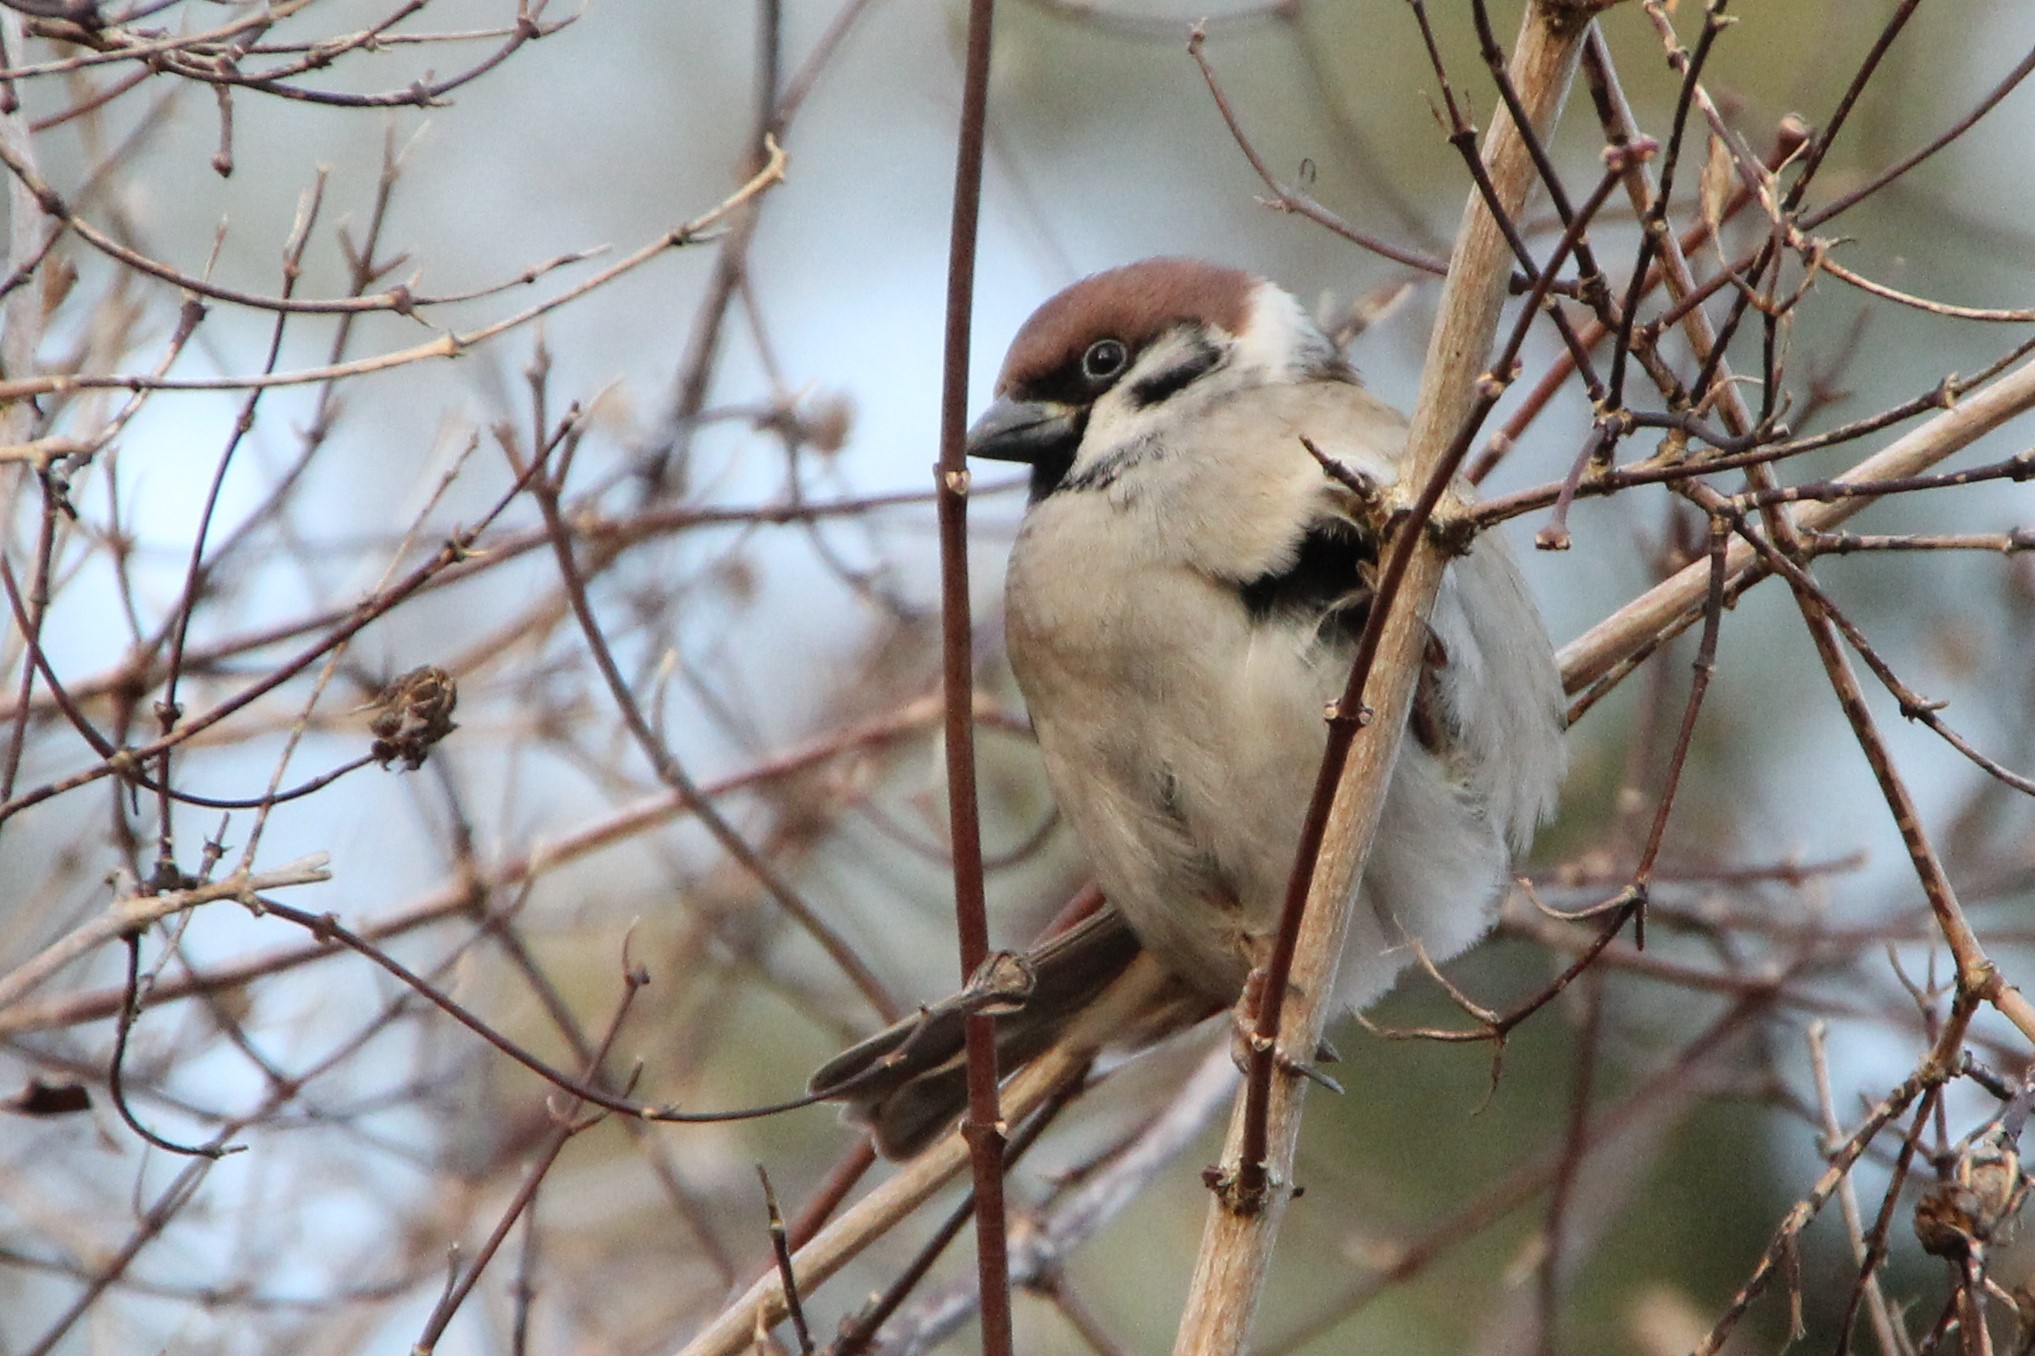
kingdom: Animalia
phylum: Chordata
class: Aves
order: Passeriformes
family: Passeridae
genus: Passer
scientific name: Passer montanus
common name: Eurasian tree sparrow
